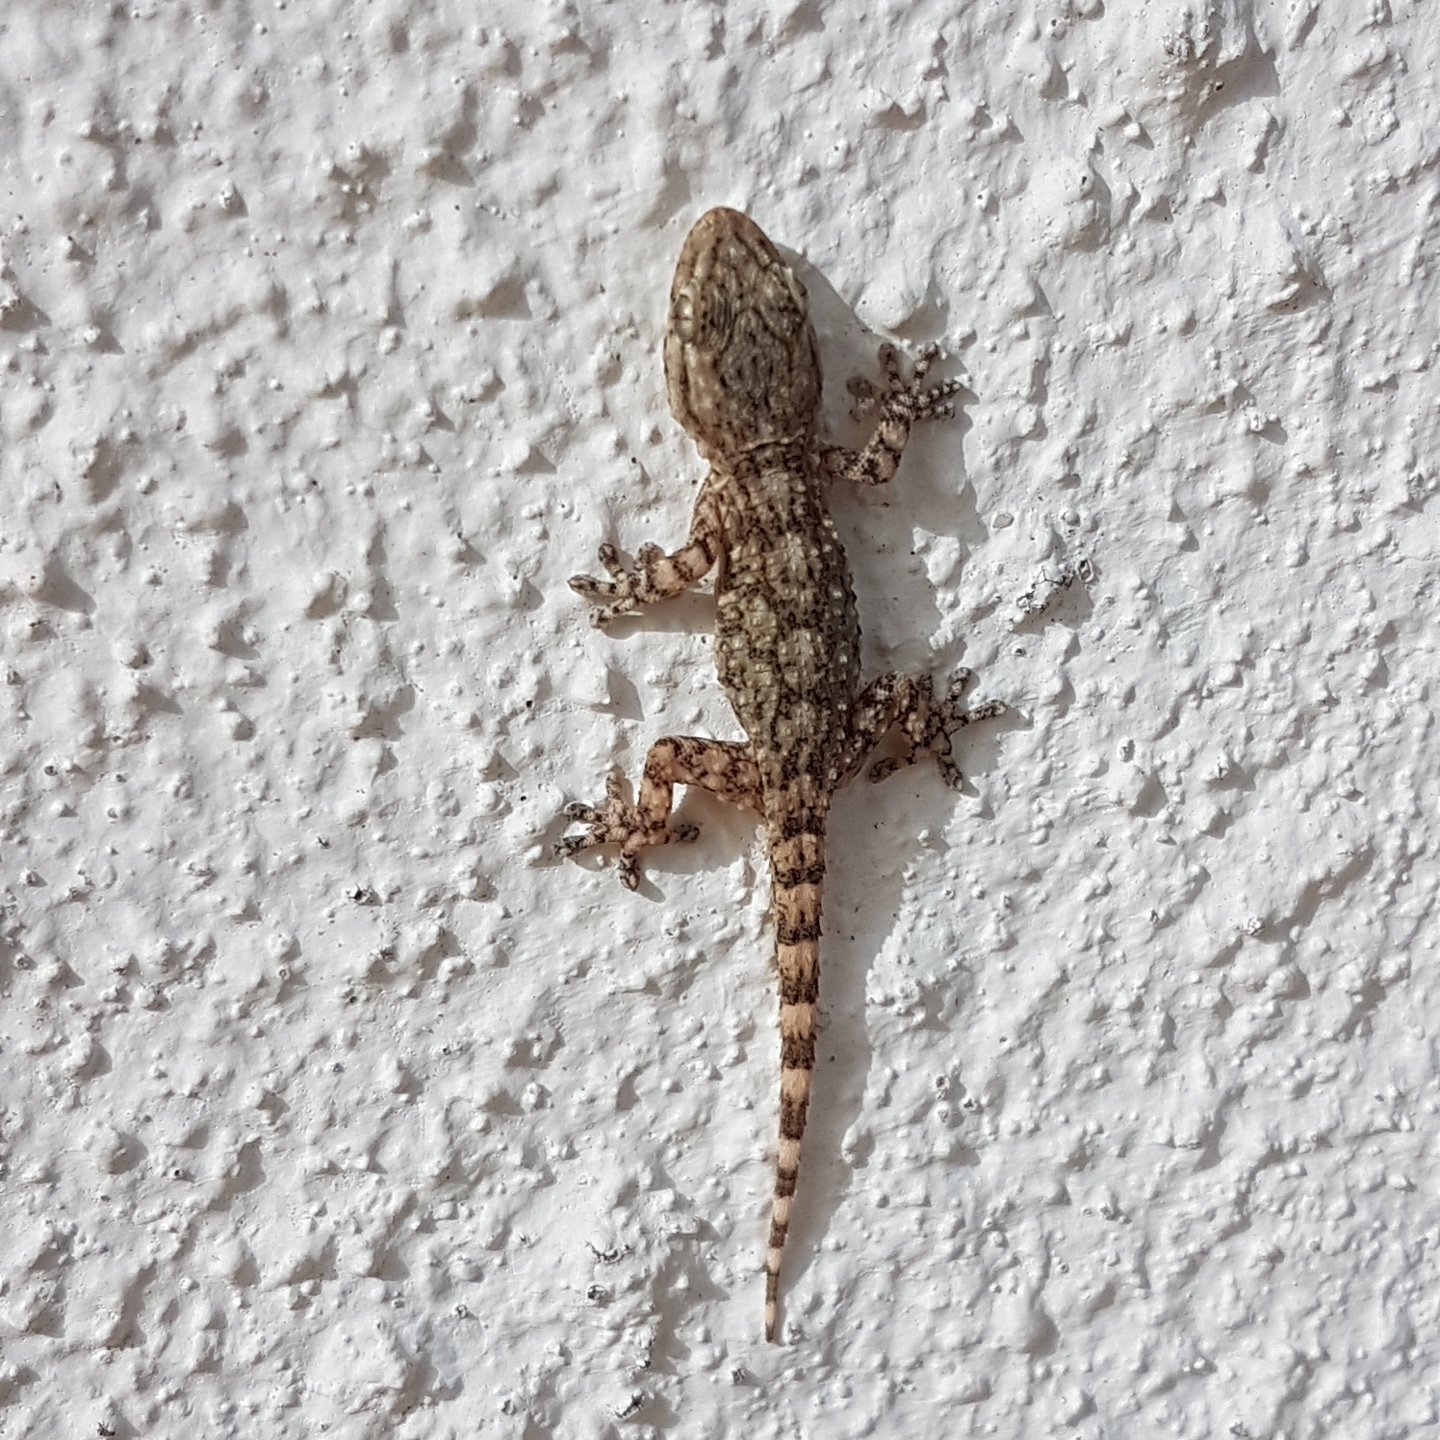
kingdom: Animalia
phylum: Chordata
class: Squamata
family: Phyllodactylidae
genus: Tarentola
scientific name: Tarentola mauritanica
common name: Moorish gecko
